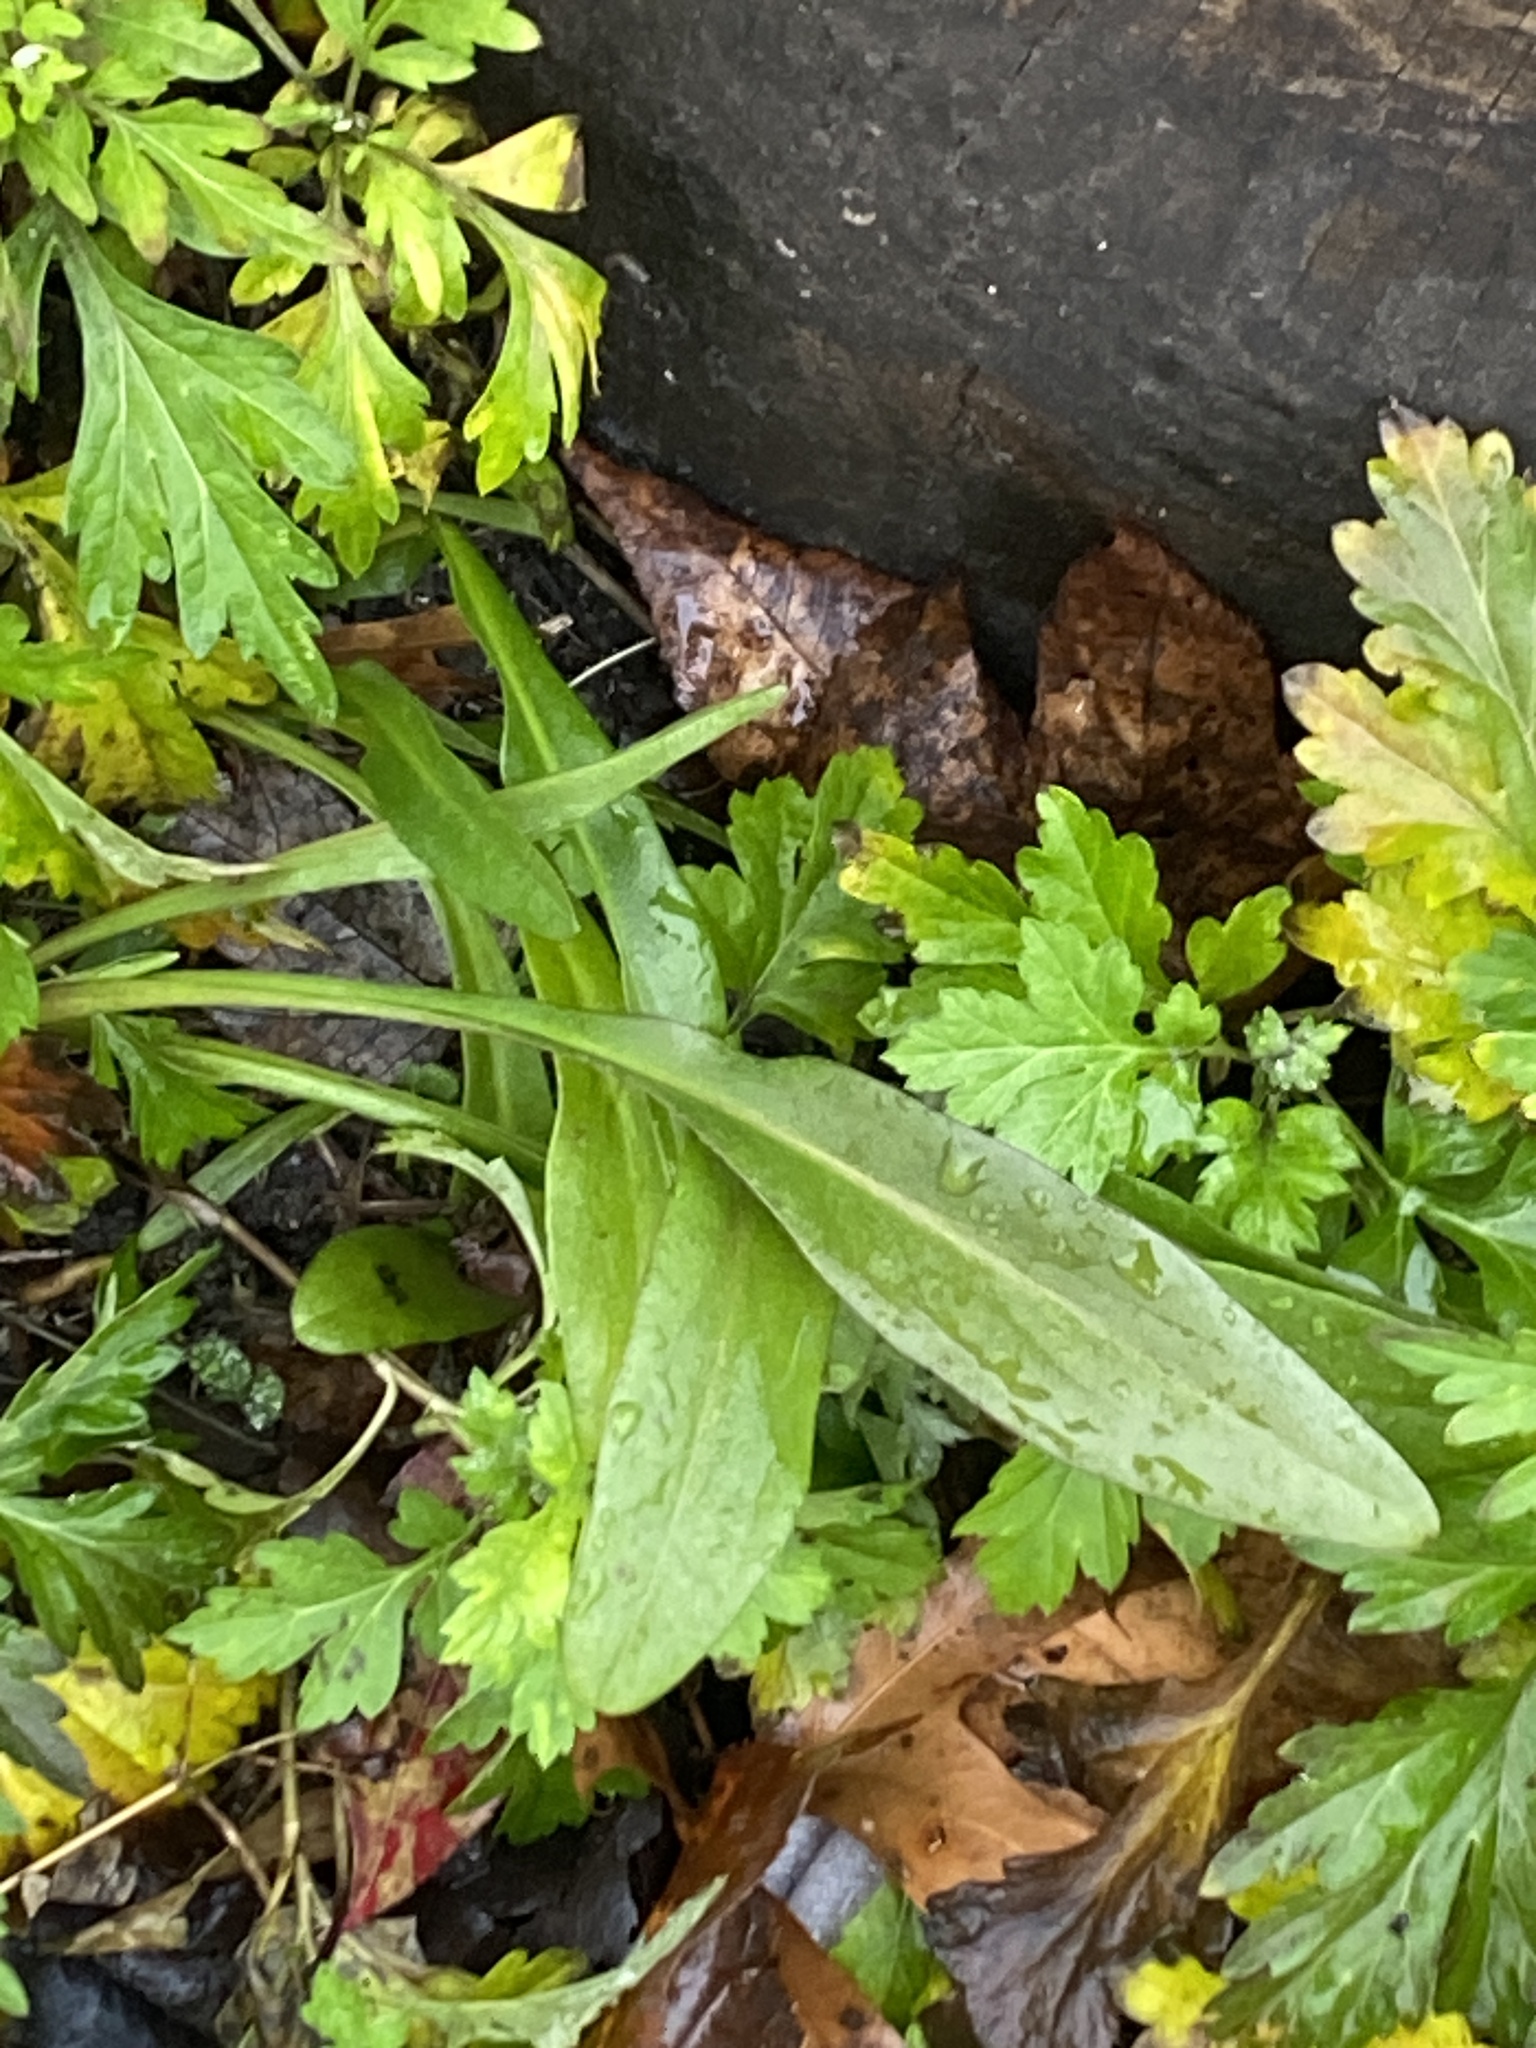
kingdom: Plantae
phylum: Tracheophyta
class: Magnoliopsida
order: Asterales
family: Asteraceae
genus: Solidago
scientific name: Solidago sempervirens
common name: Salt-marsh goldenrod
